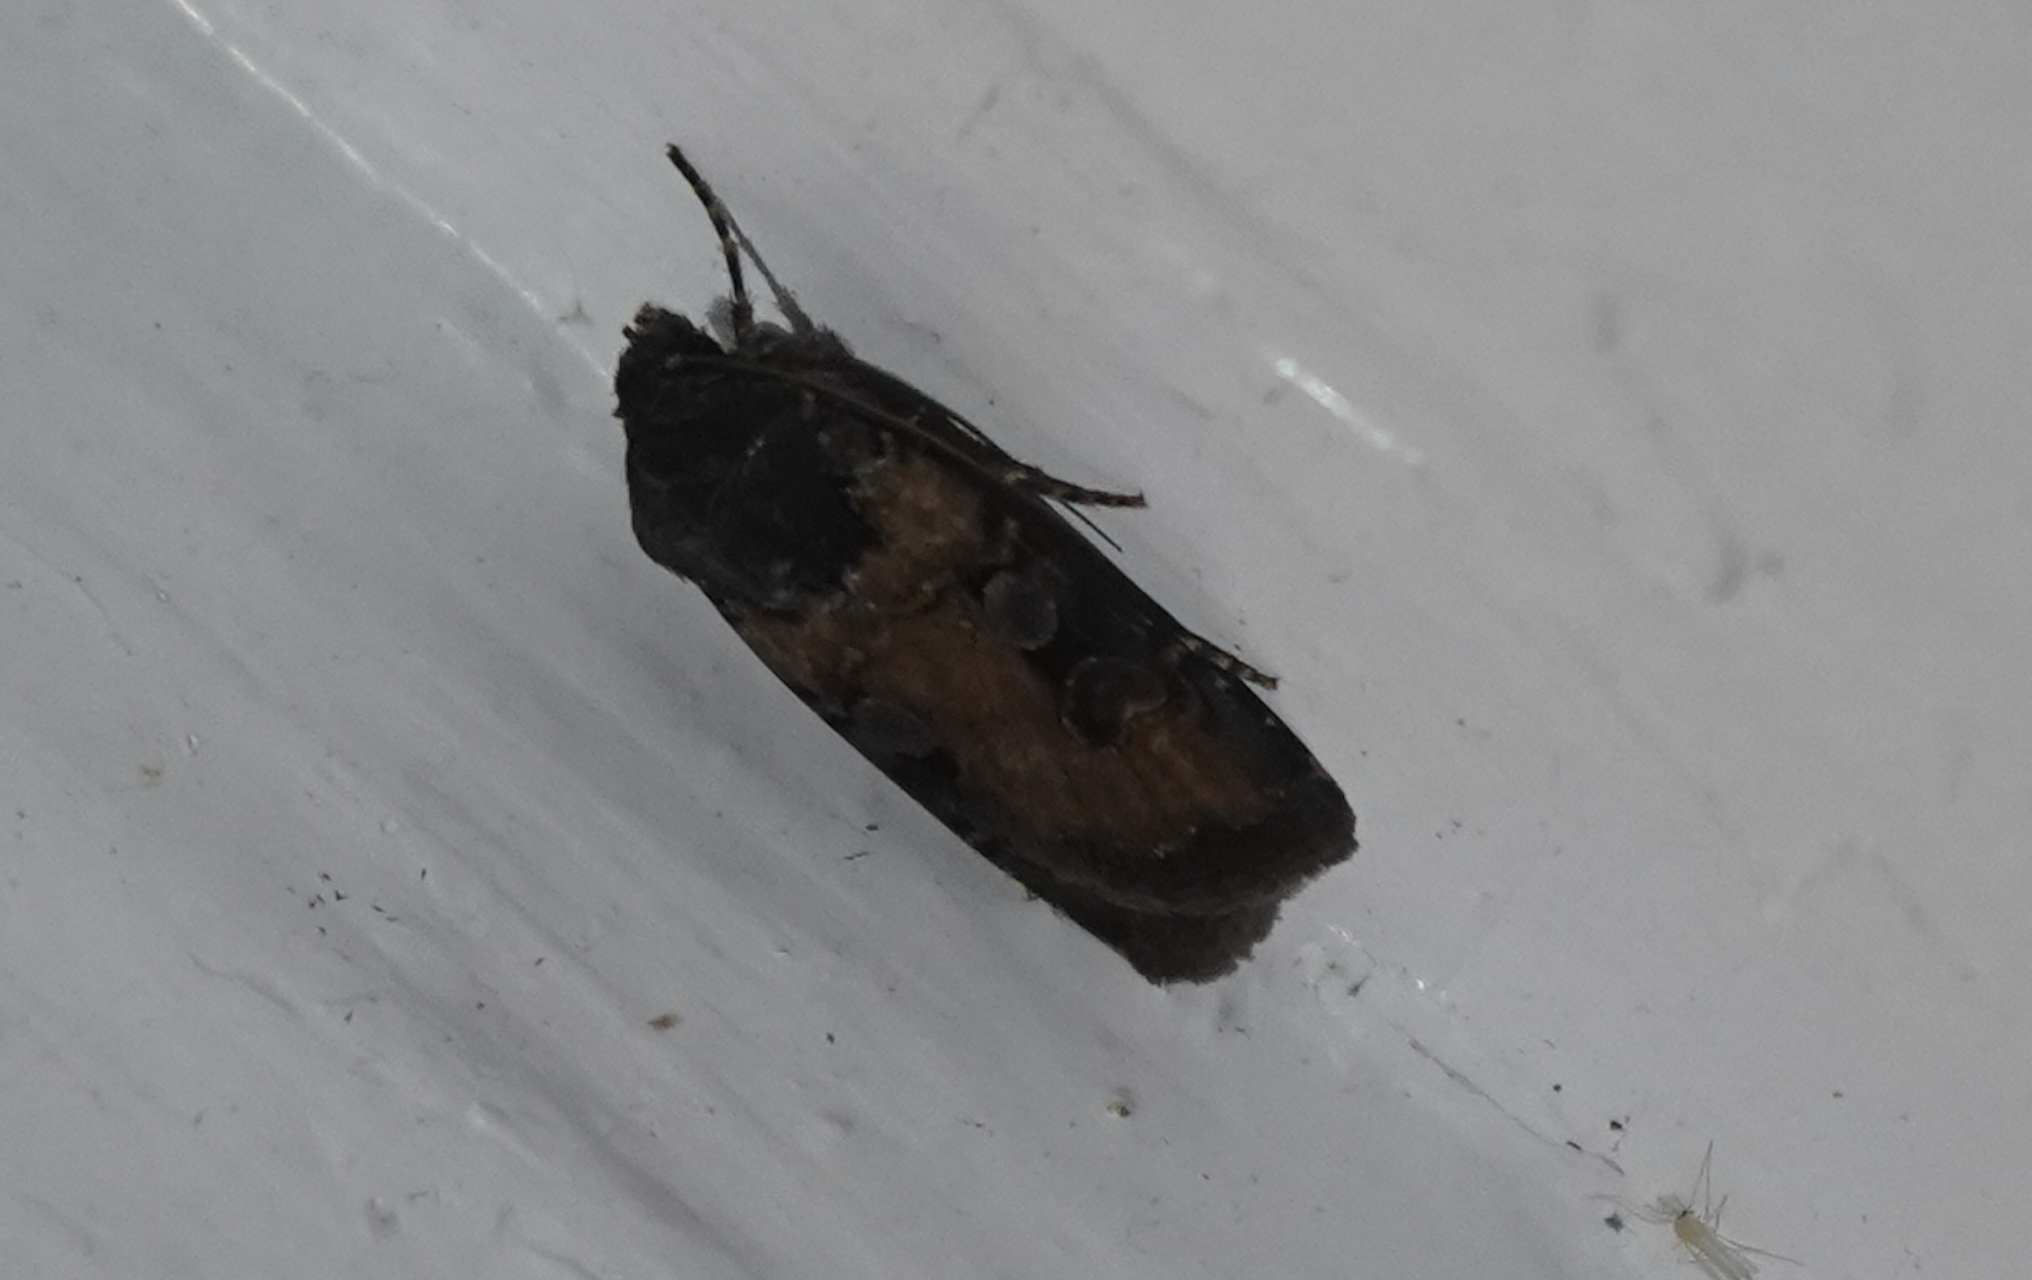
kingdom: Animalia
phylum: Arthropoda
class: Insecta
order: Lepidoptera
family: Noctuidae
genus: Euxoa
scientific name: Euxoa albipennis
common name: White-striped dart
